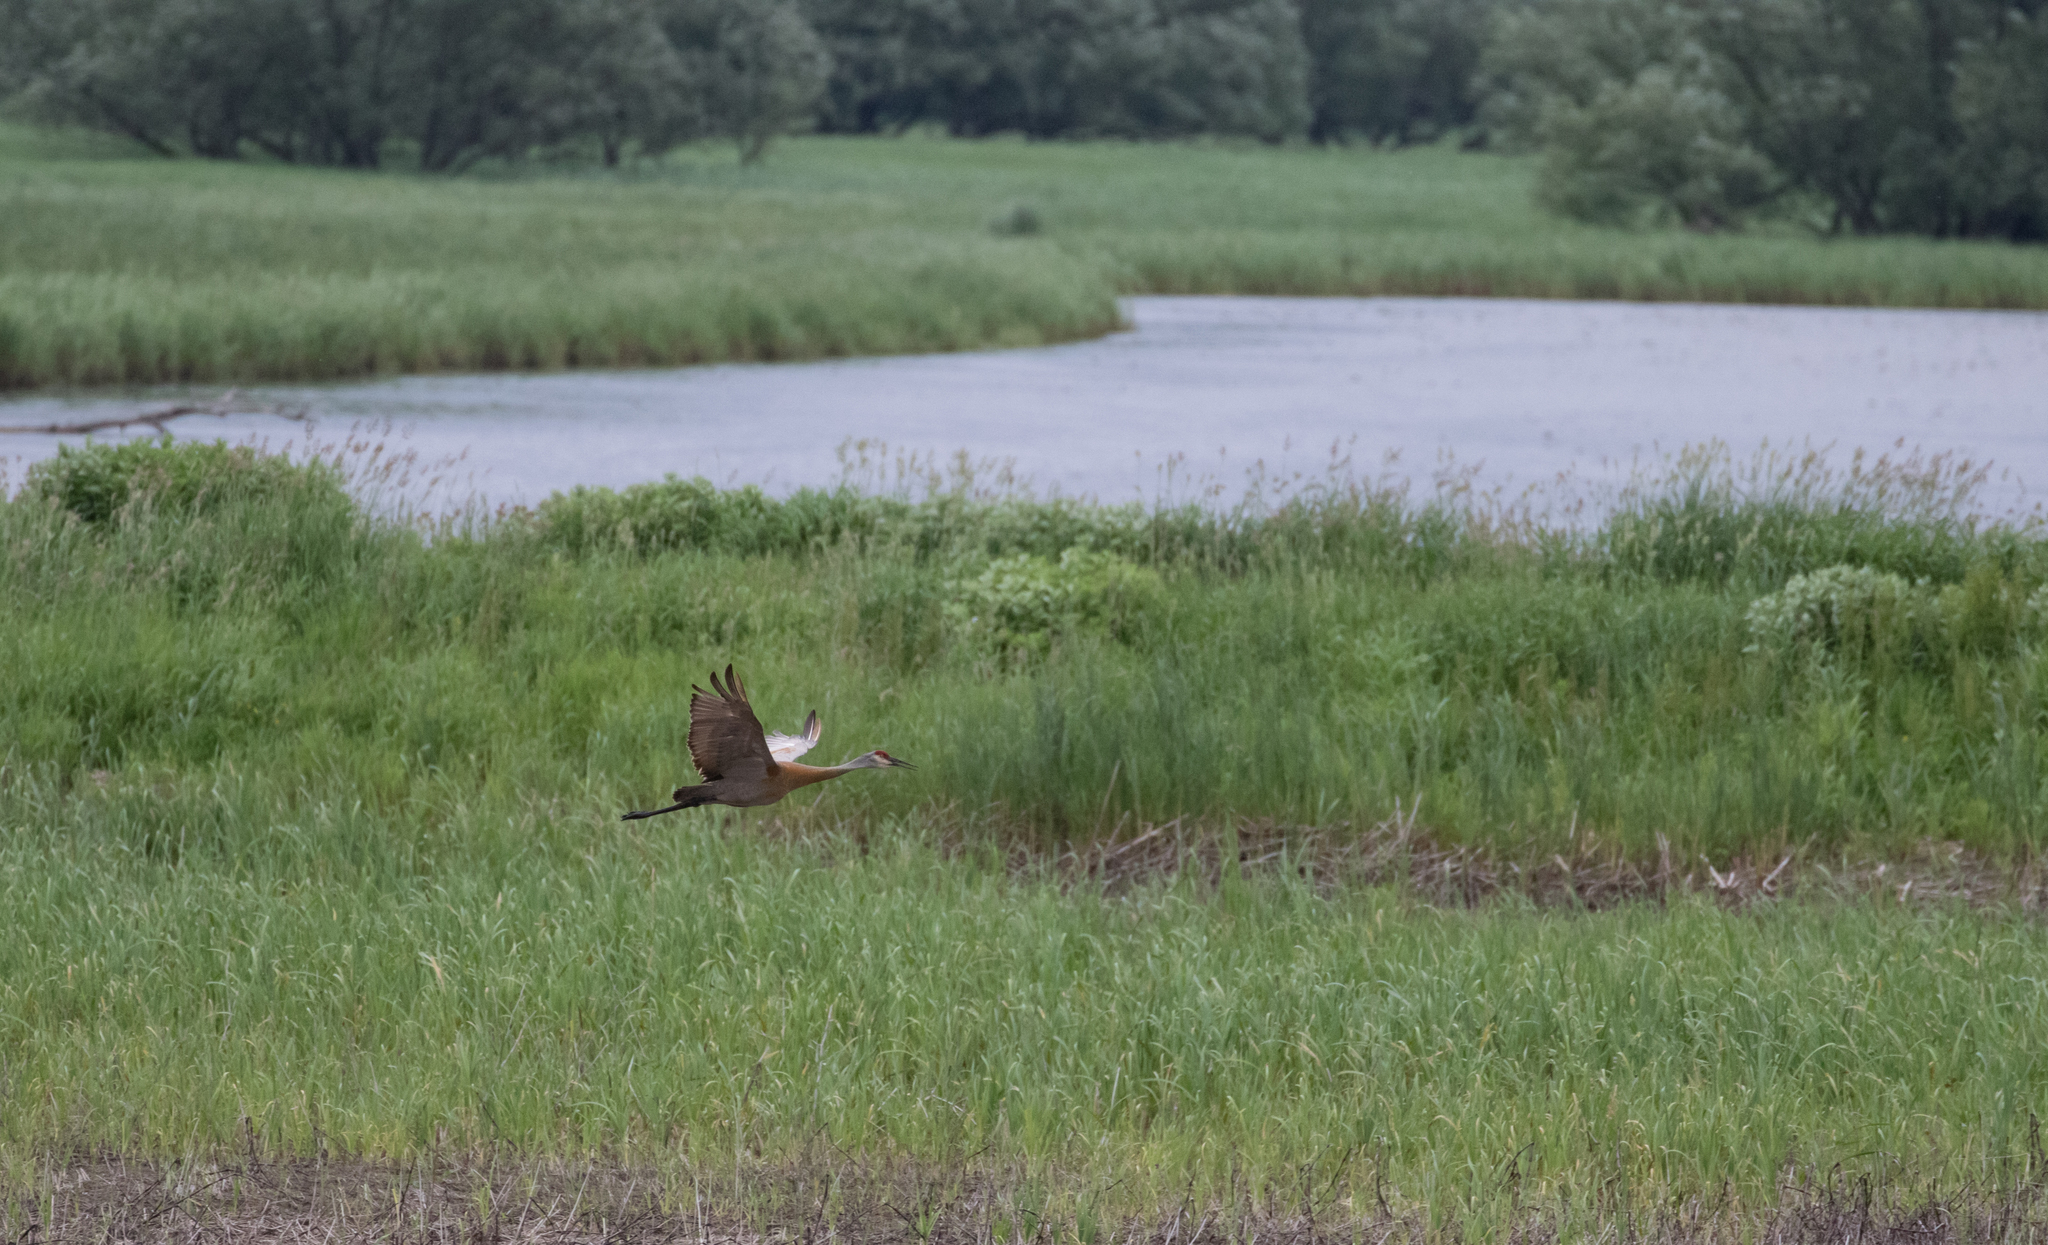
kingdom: Animalia
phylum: Chordata
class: Aves
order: Gruiformes
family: Gruidae
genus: Grus
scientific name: Grus canadensis
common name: Sandhill crane
